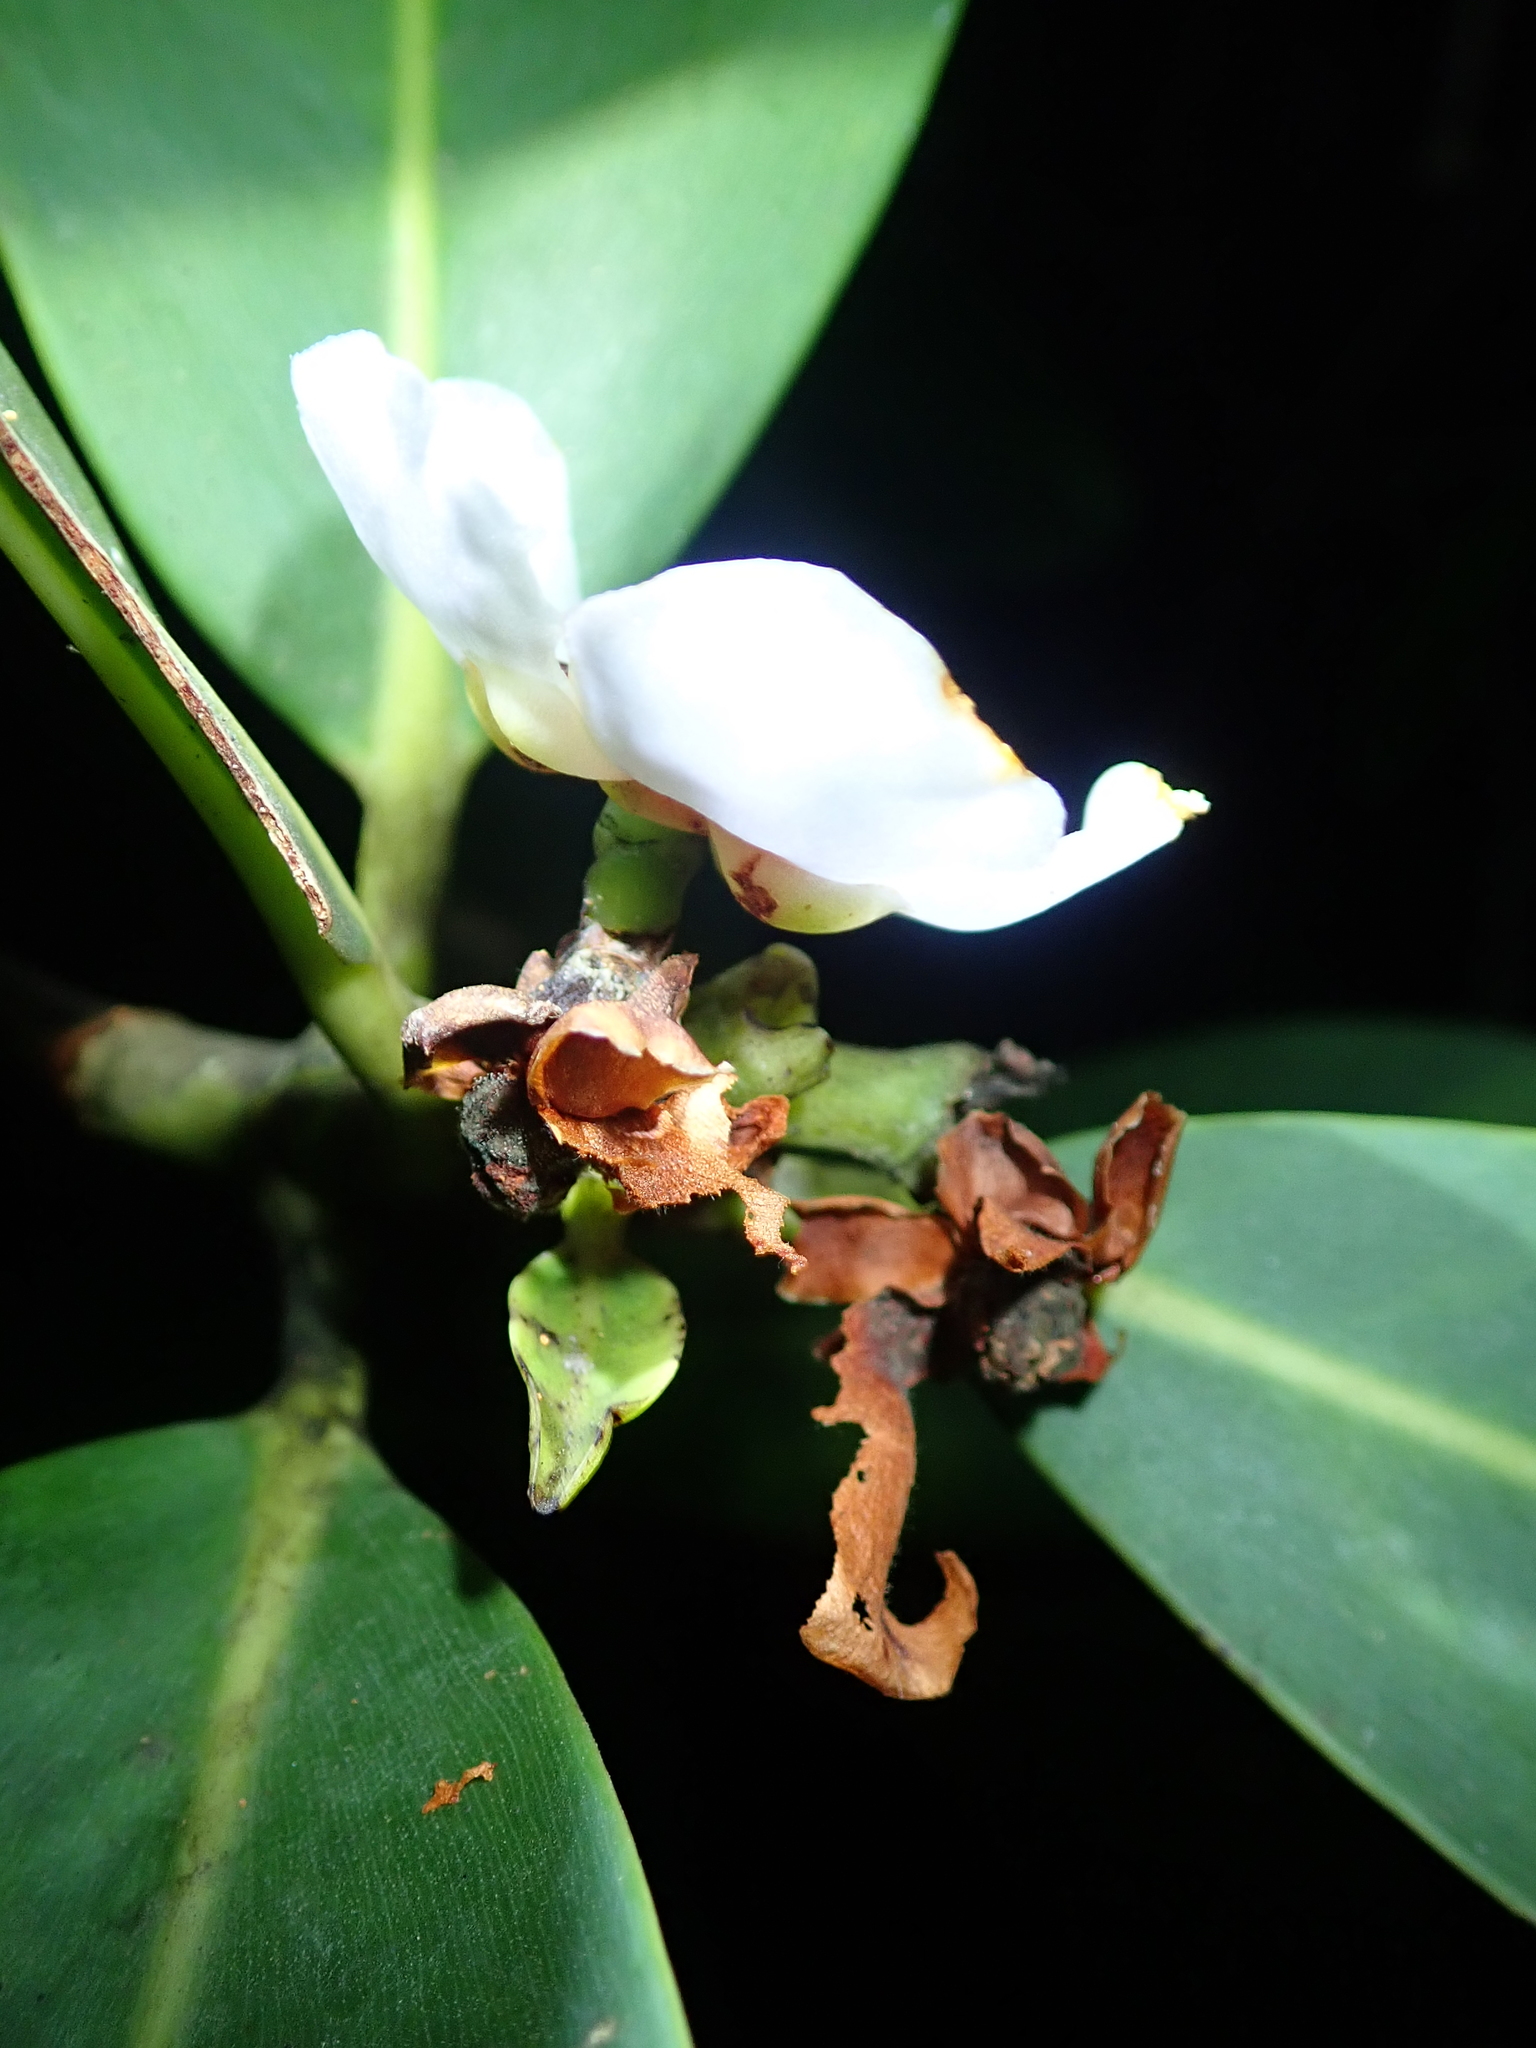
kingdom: Plantae
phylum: Tracheophyta
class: Magnoliopsida
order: Malpighiales
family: Clusiaceae
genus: Clusia
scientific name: Clusia gardneri
